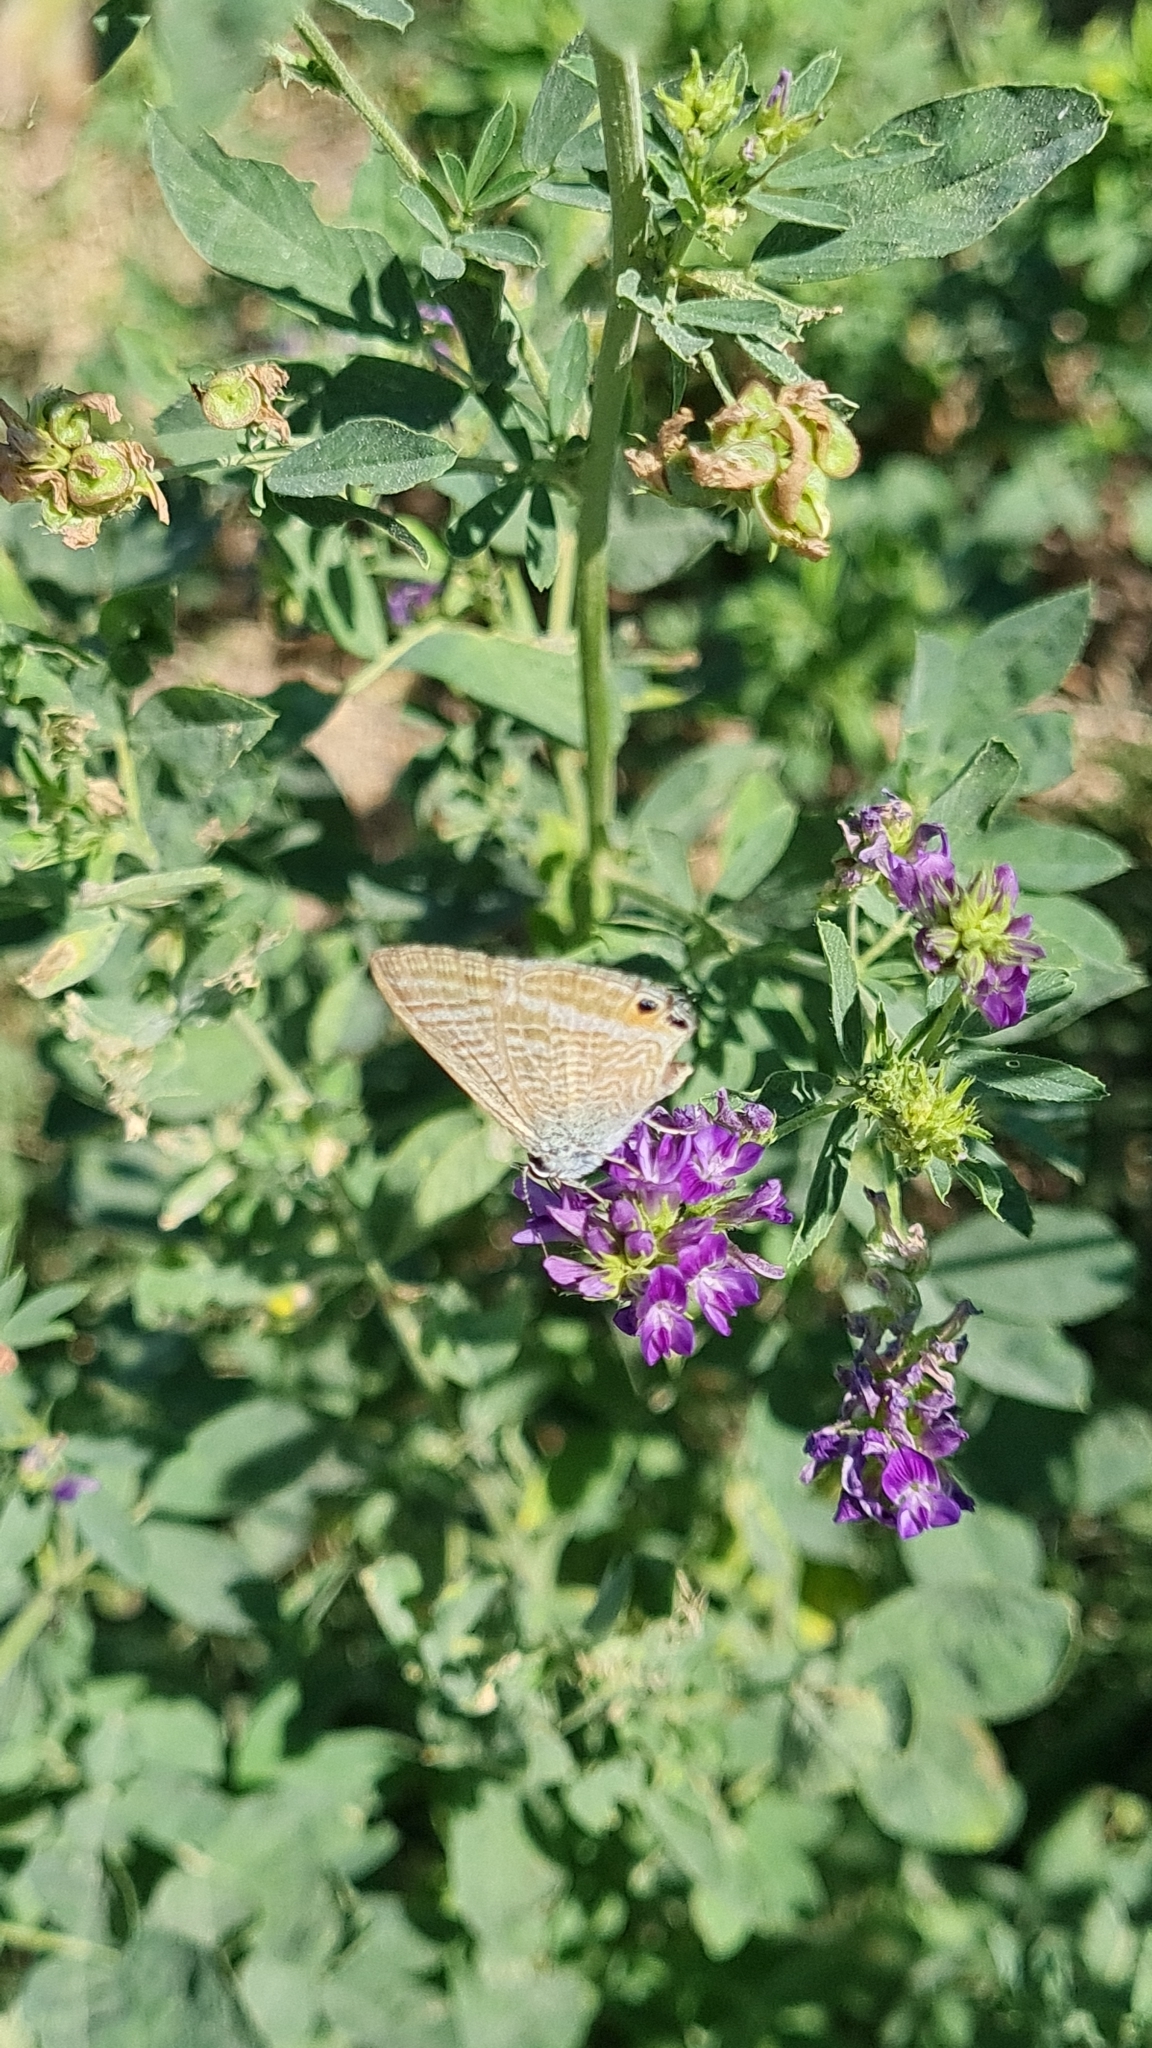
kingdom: Animalia
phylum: Arthropoda
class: Insecta
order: Lepidoptera
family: Lycaenidae
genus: Lampides
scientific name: Lampides boeticus
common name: Long-tailed blue
